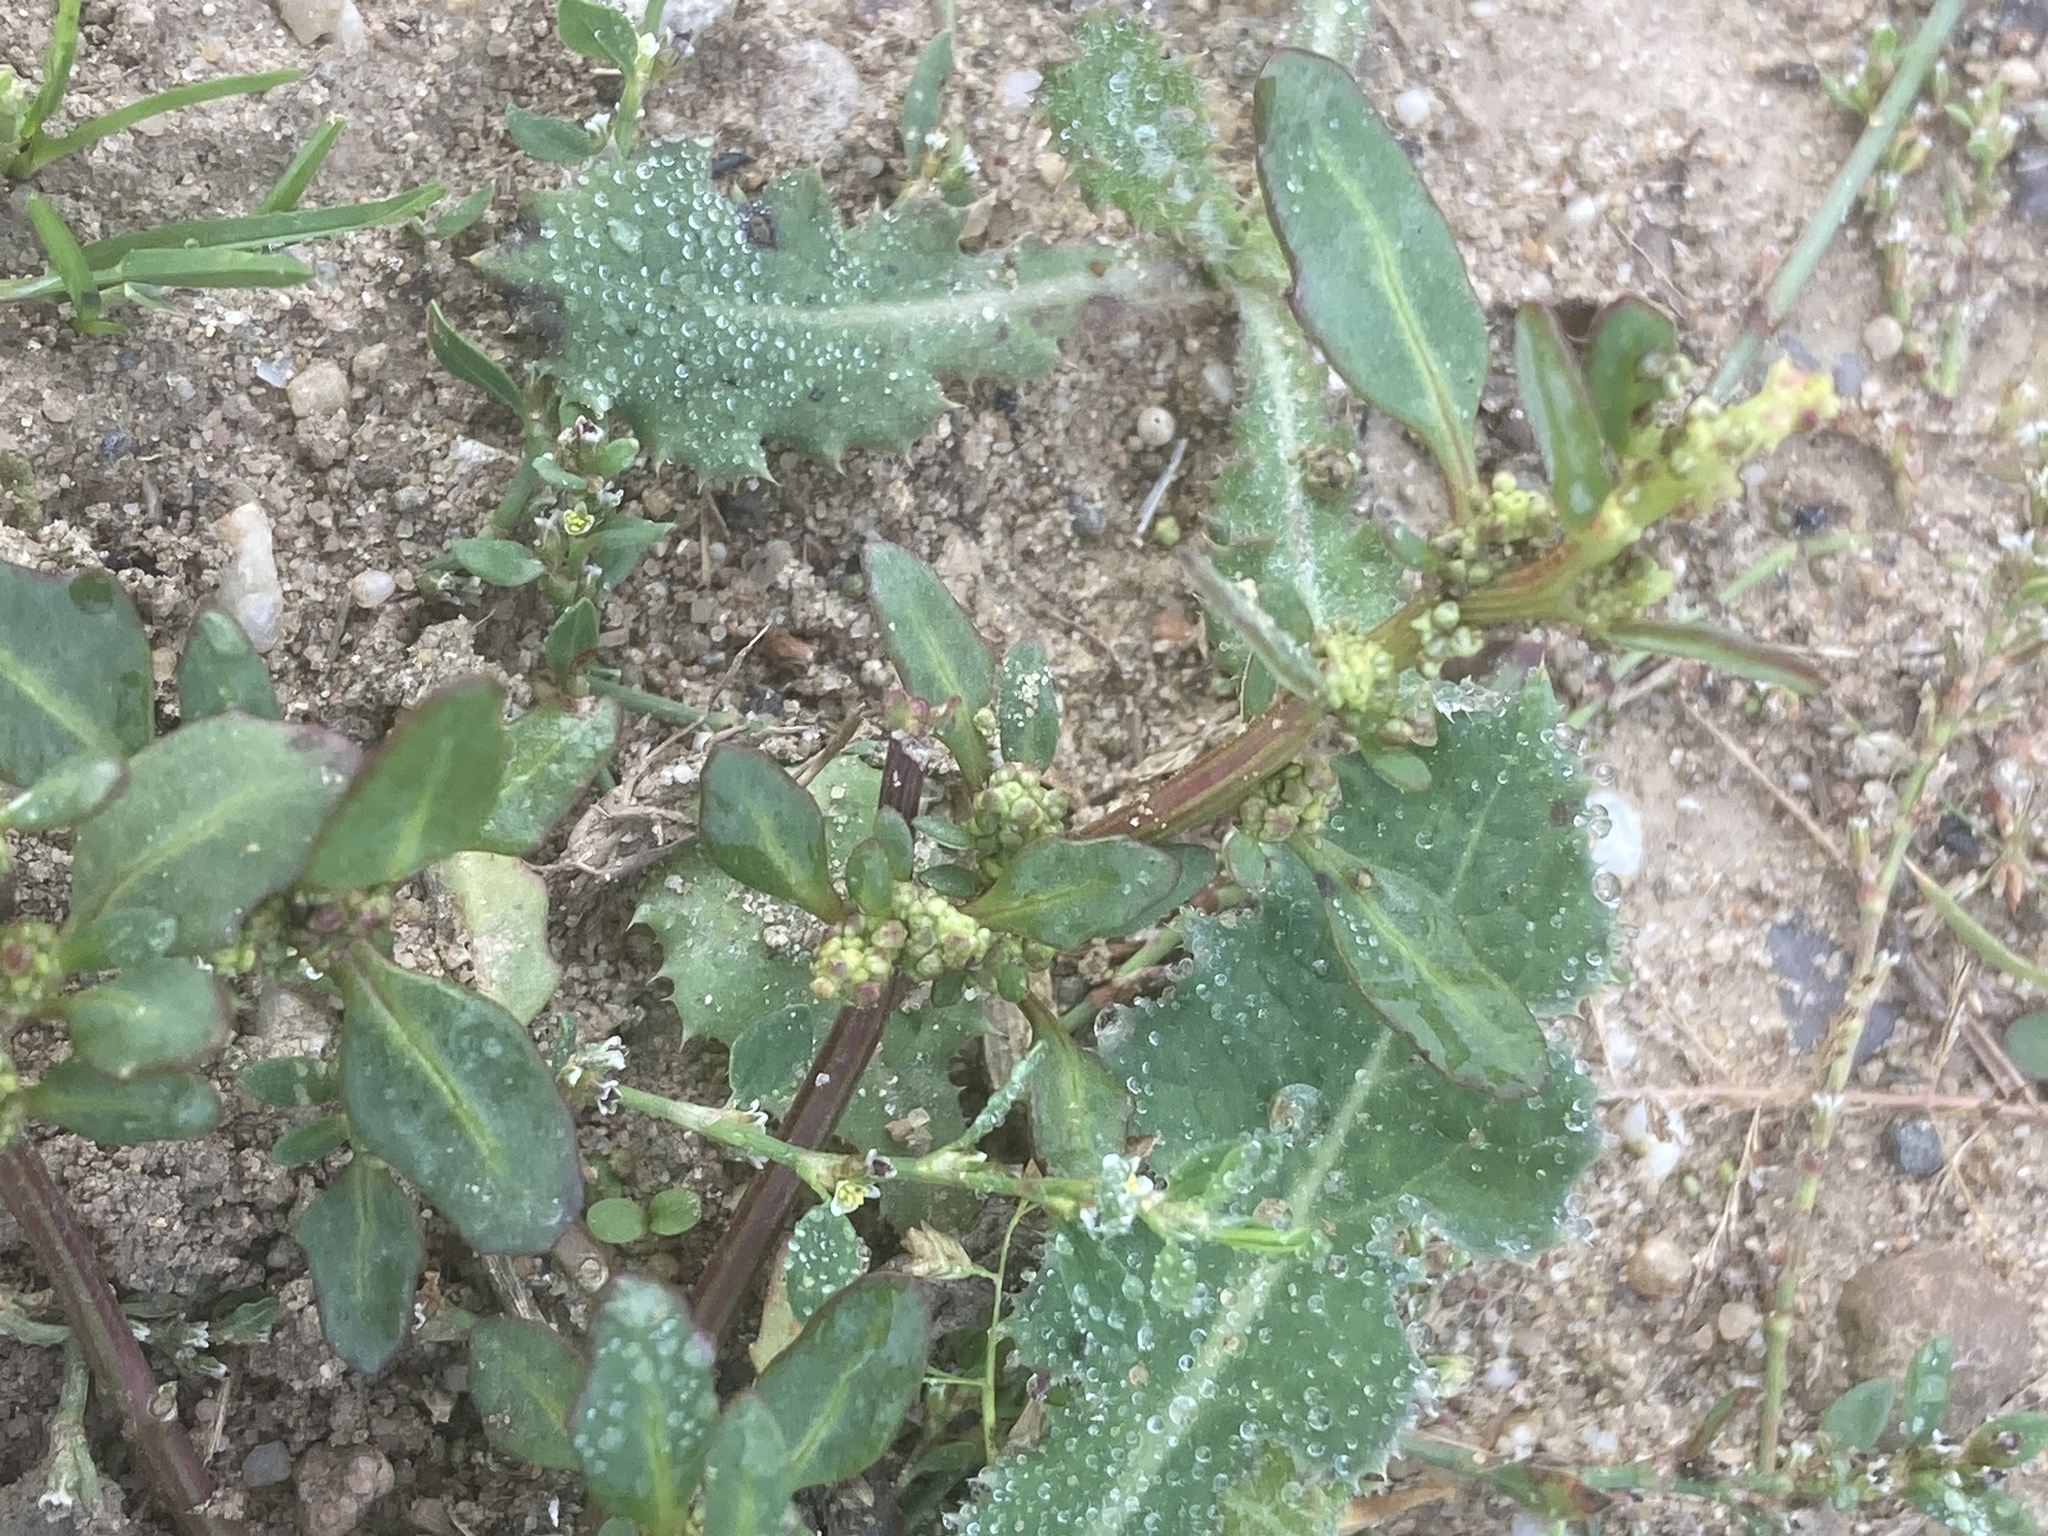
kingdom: Plantae
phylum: Tracheophyta
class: Magnoliopsida
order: Caryophyllales
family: Amaranthaceae
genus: Oxybasis
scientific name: Oxybasis glauca
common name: Glaucous goosefoot
